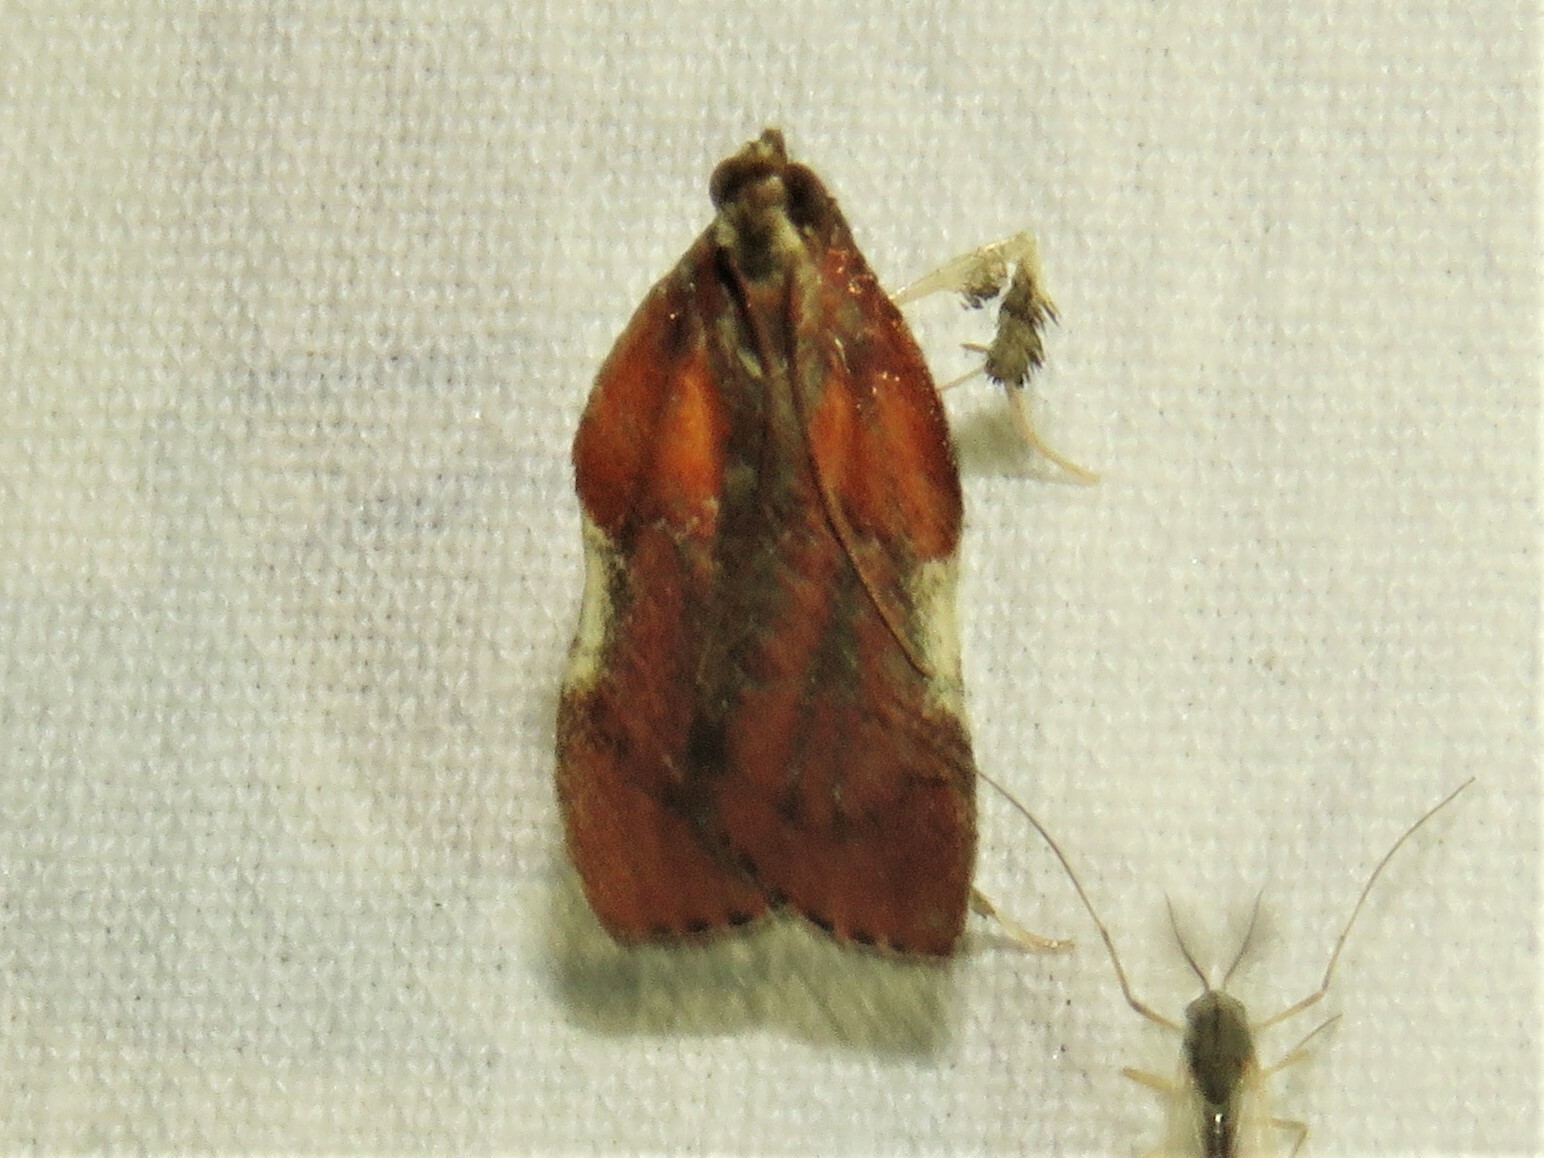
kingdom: Animalia
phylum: Arthropoda
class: Insecta
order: Lepidoptera
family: Pyralidae
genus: Galasa
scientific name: Galasa nigrinodis
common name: Boxwood leaftier moth
